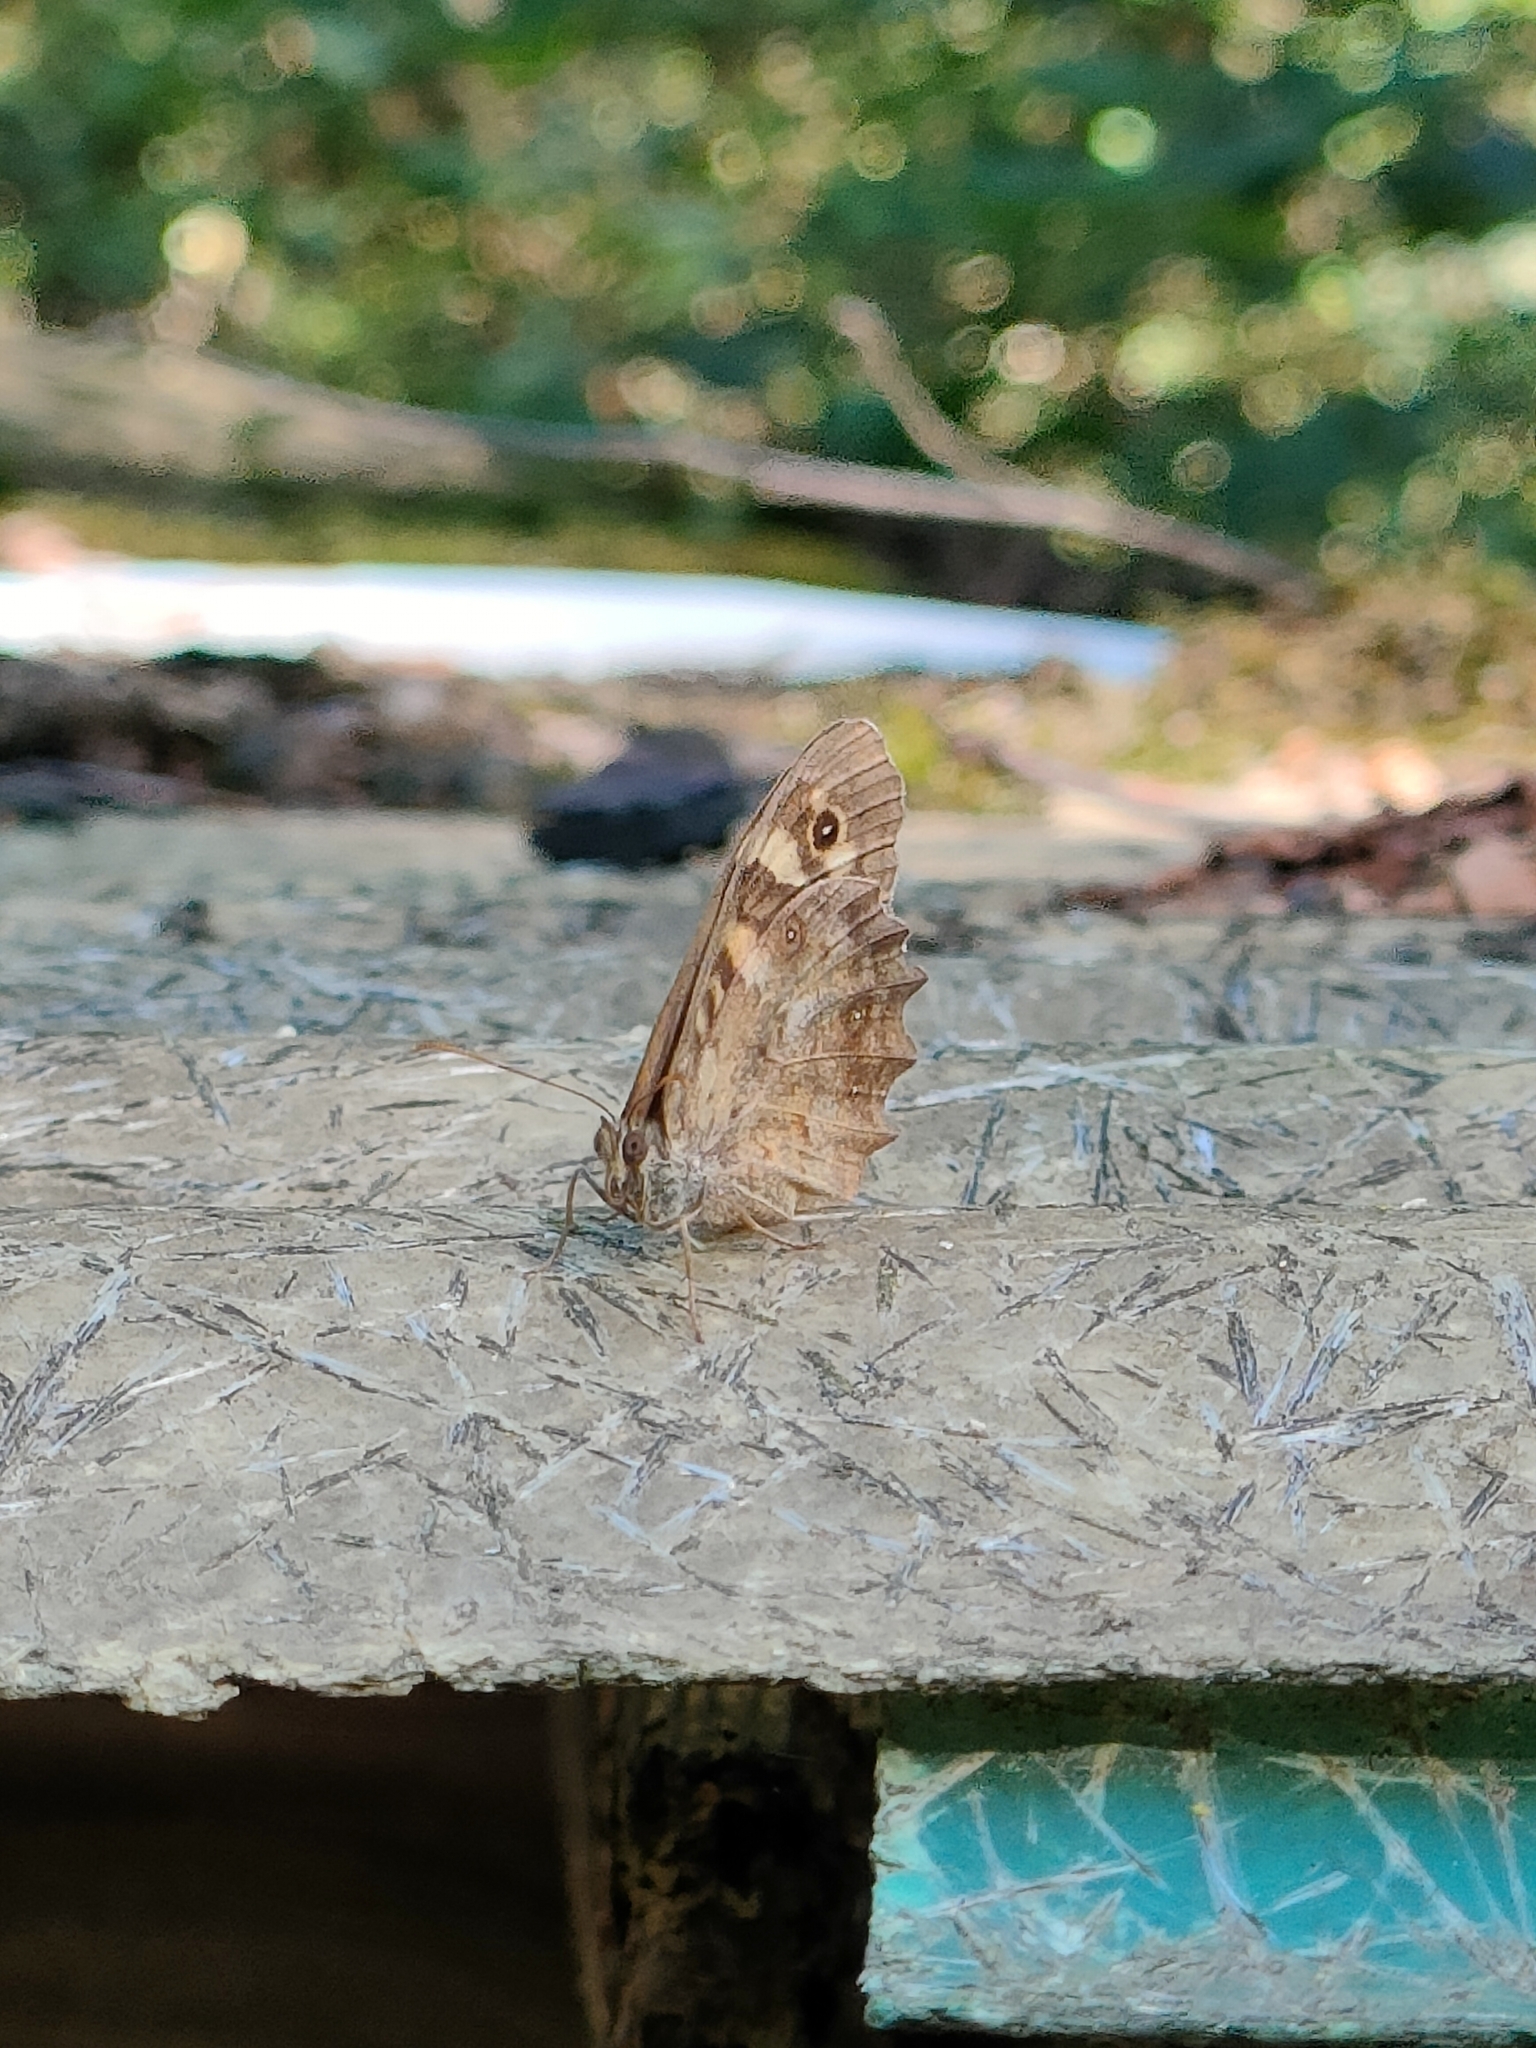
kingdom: Animalia
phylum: Arthropoda
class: Insecta
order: Lepidoptera
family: Nymphalidae
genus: Pararge
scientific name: Pararge aegeria
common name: Speckled wood
